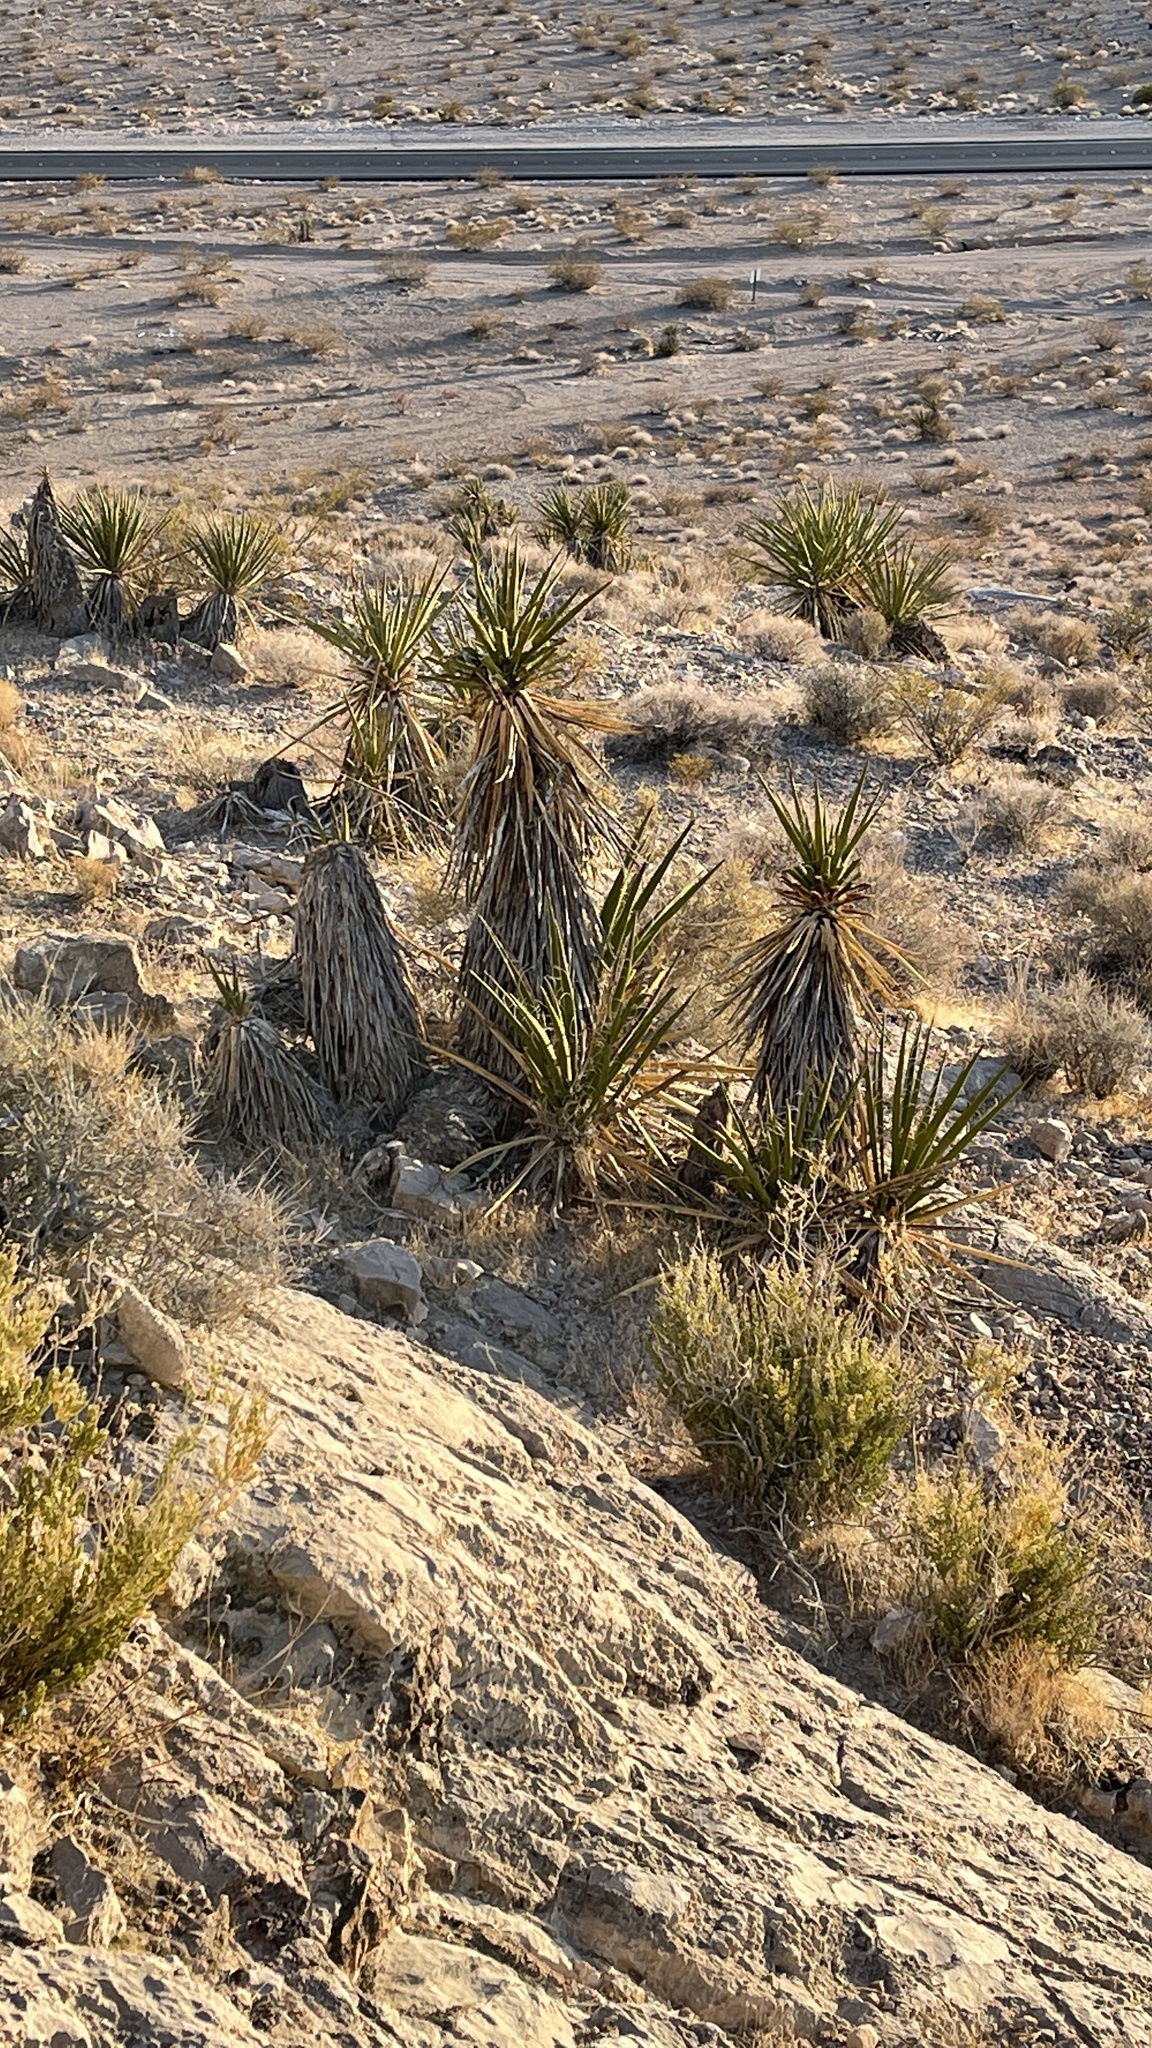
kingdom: Plantae
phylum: Tracheophyta
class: Liliopsida
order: Asparagales
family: Asparagaceae
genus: Yucca
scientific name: Yucca schidigera
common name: Mojave yucca
